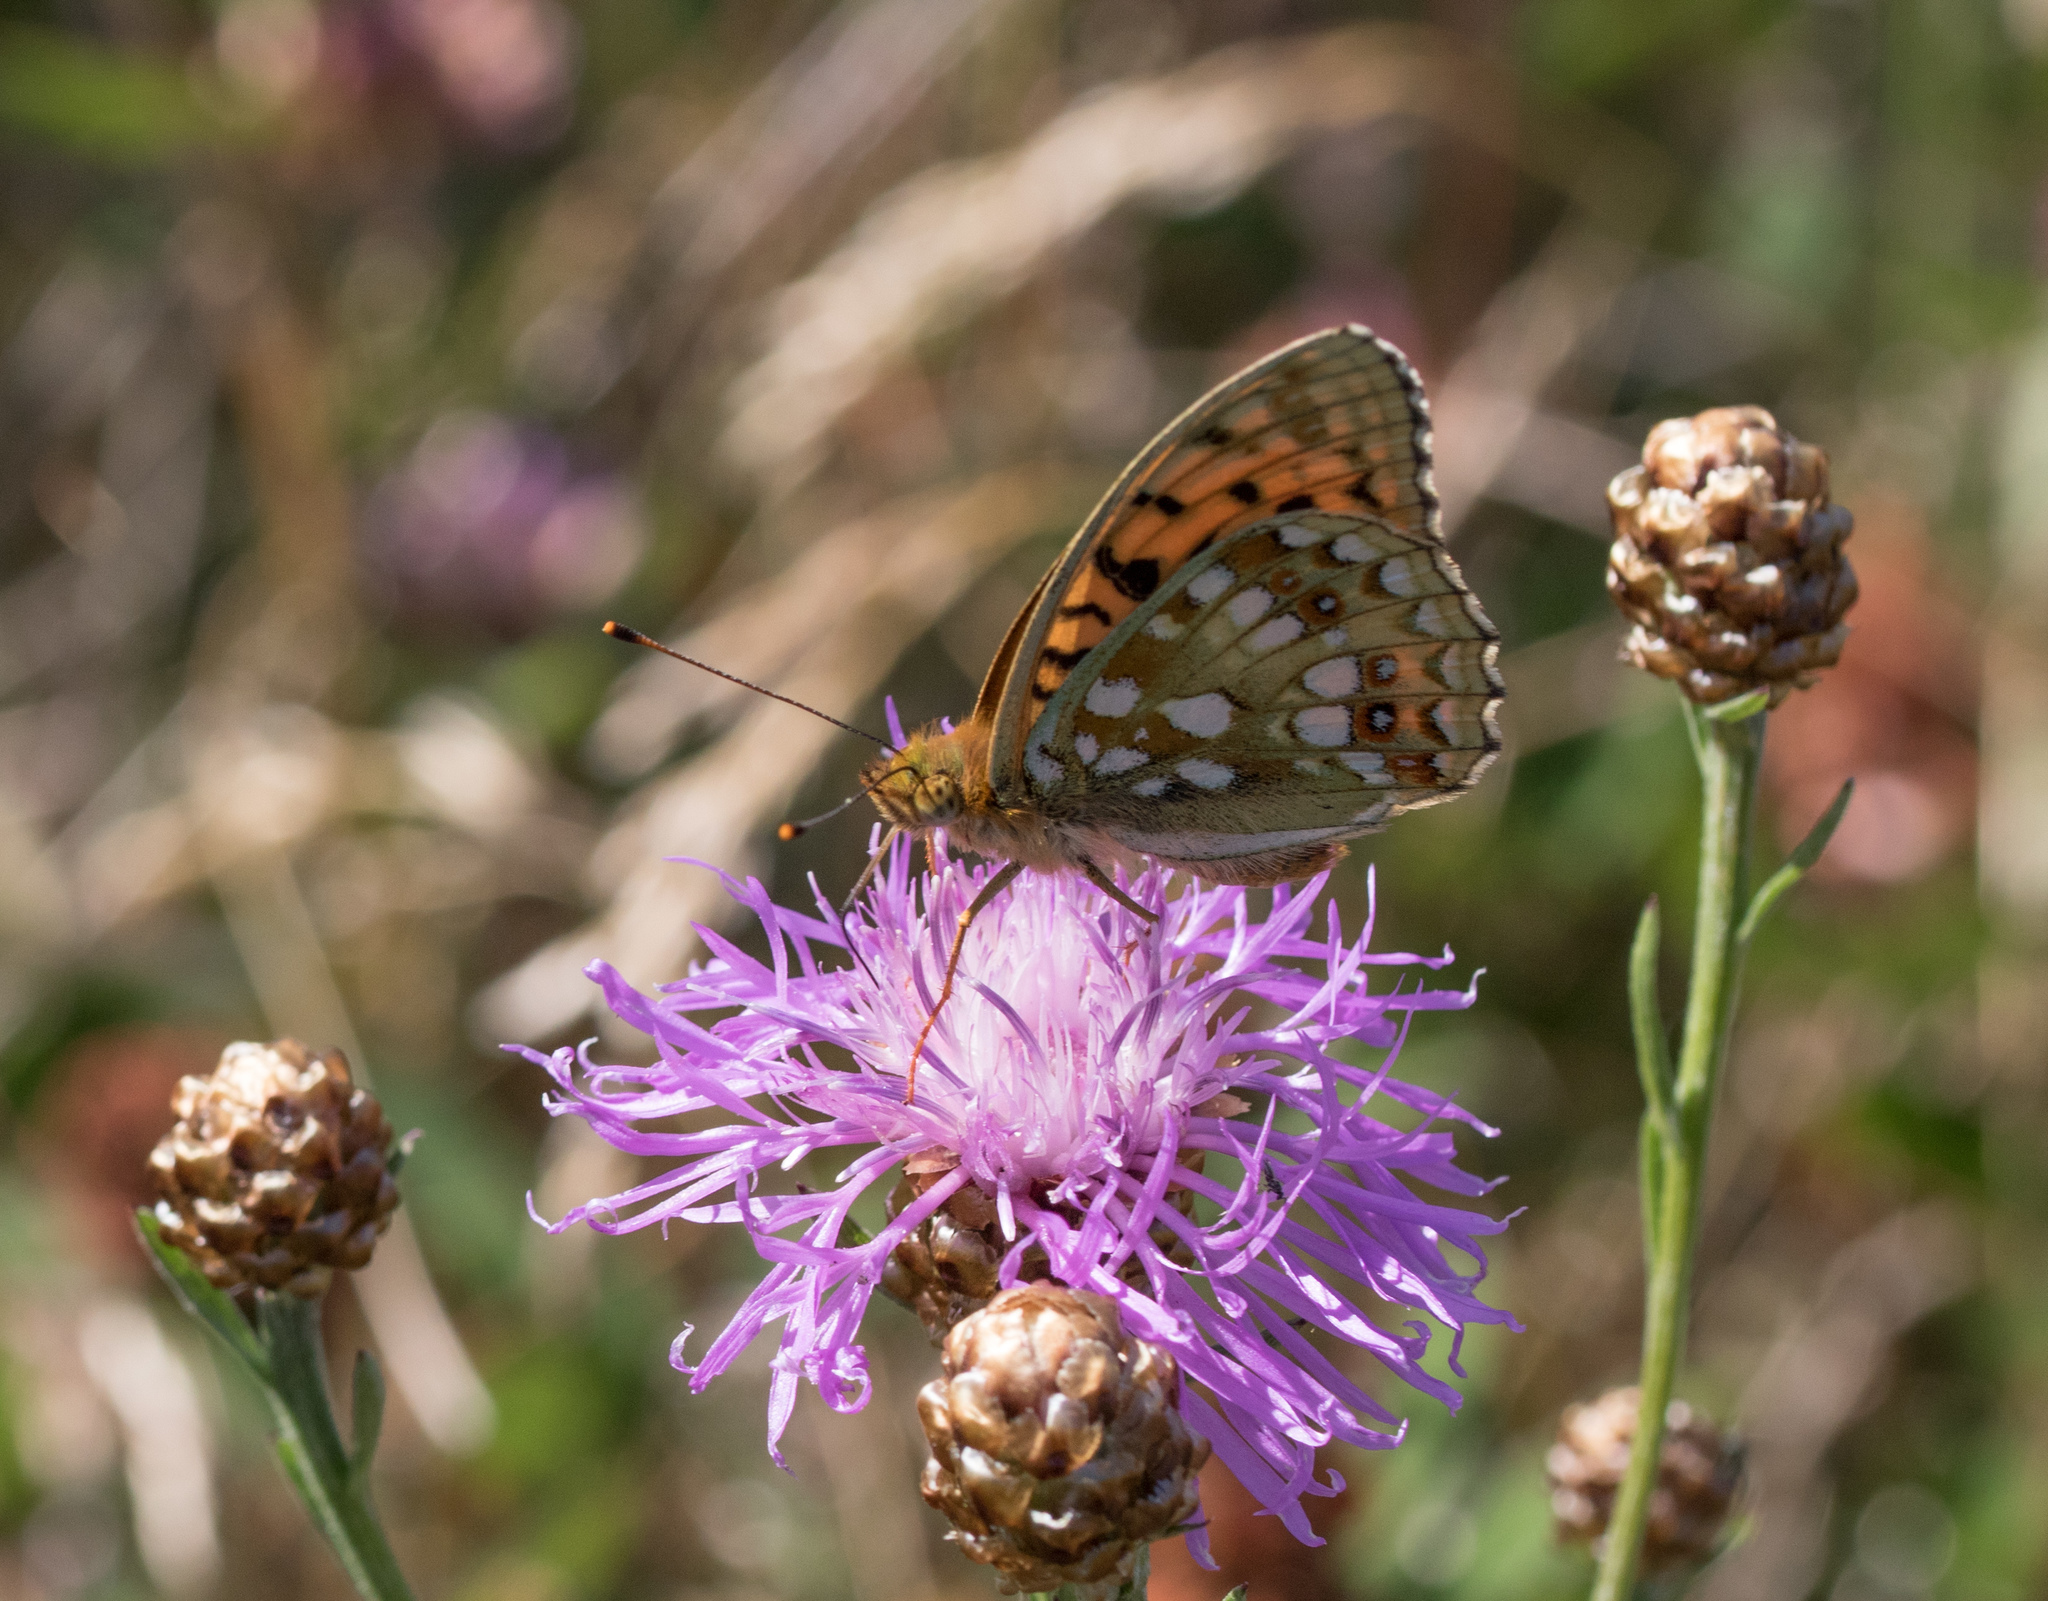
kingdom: Animalia
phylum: Arthropoda
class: Insecta
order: Lepidoptera
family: Nymphalidae
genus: Fabriciana
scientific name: Fabriciana adippe
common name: High brown fritillary
